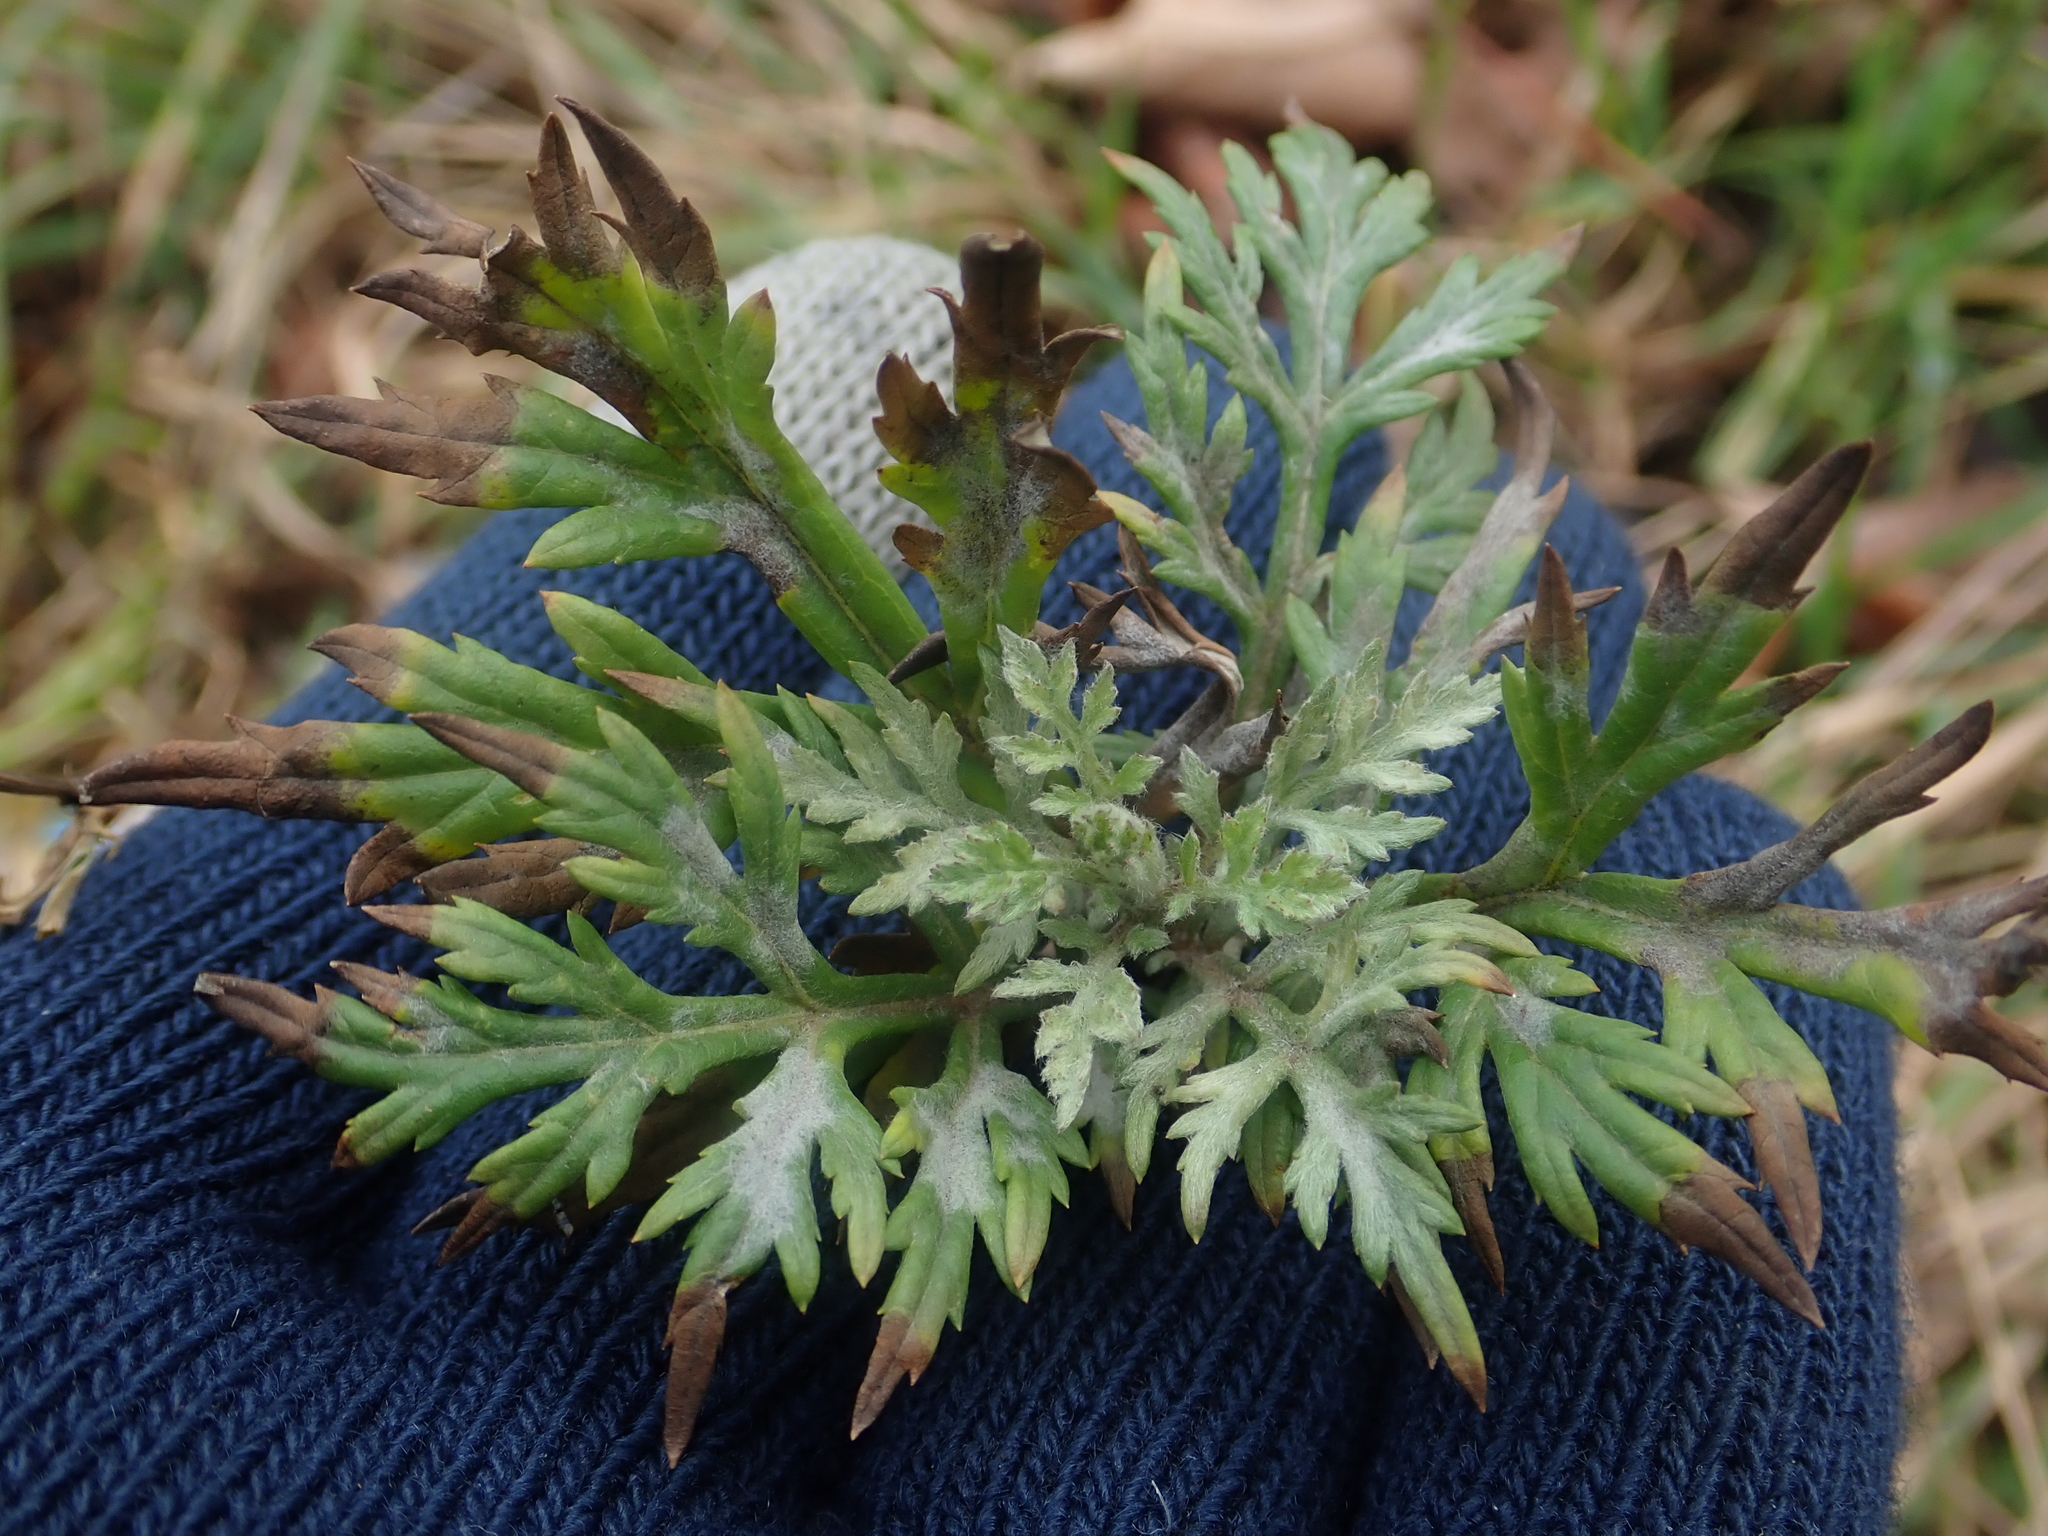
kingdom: Plantae
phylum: Tracheophyta
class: Magnoliopsida
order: Asterales
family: Asteraceae
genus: Artemisia
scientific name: Artemisia vulgaris
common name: Mugwort
